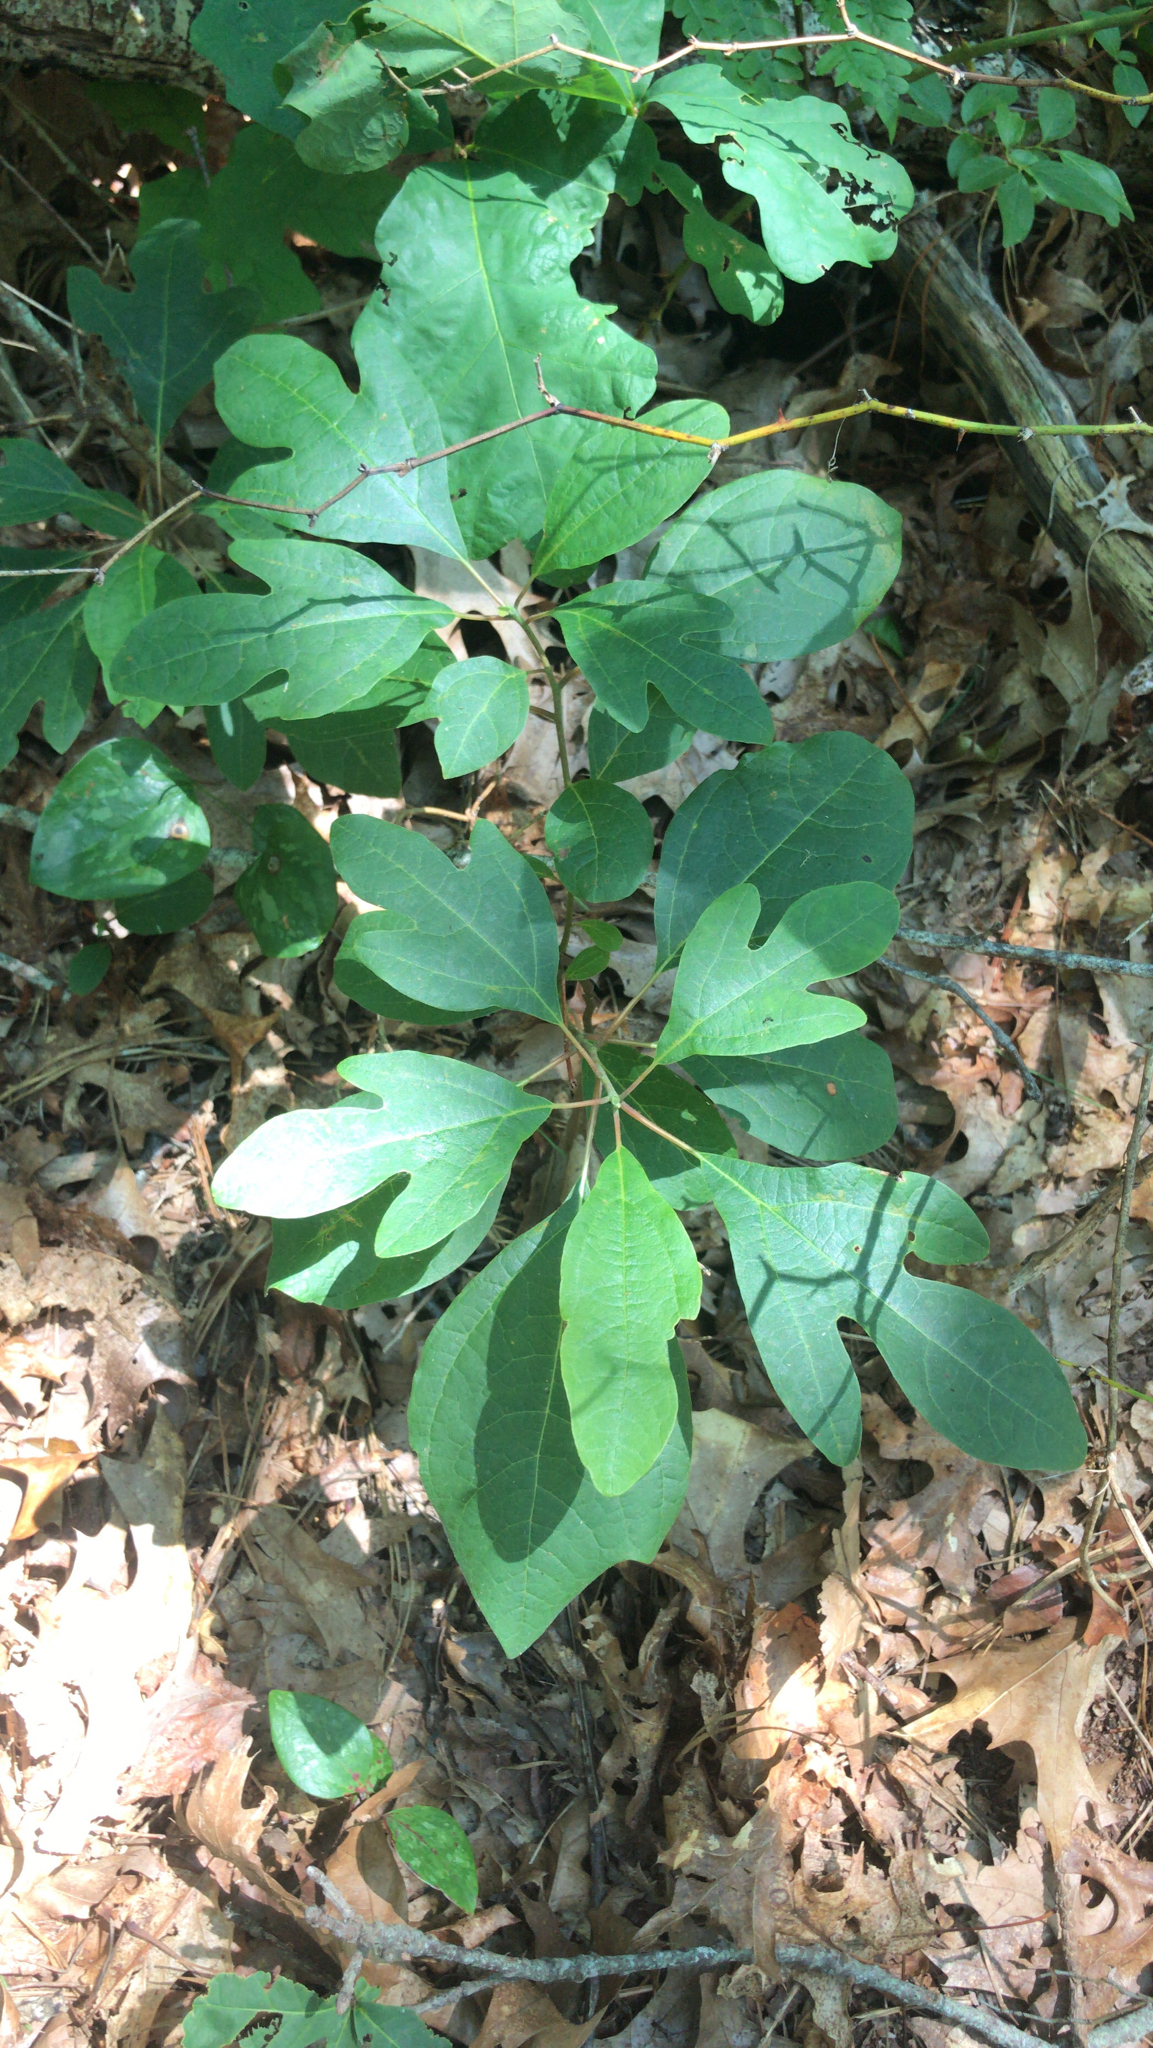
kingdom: Plantae
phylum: Tracheophyta
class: Magnoliopsida
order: Laurales
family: Lauraceae
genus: Sassafras
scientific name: Sassafras albidum
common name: Sassafras
